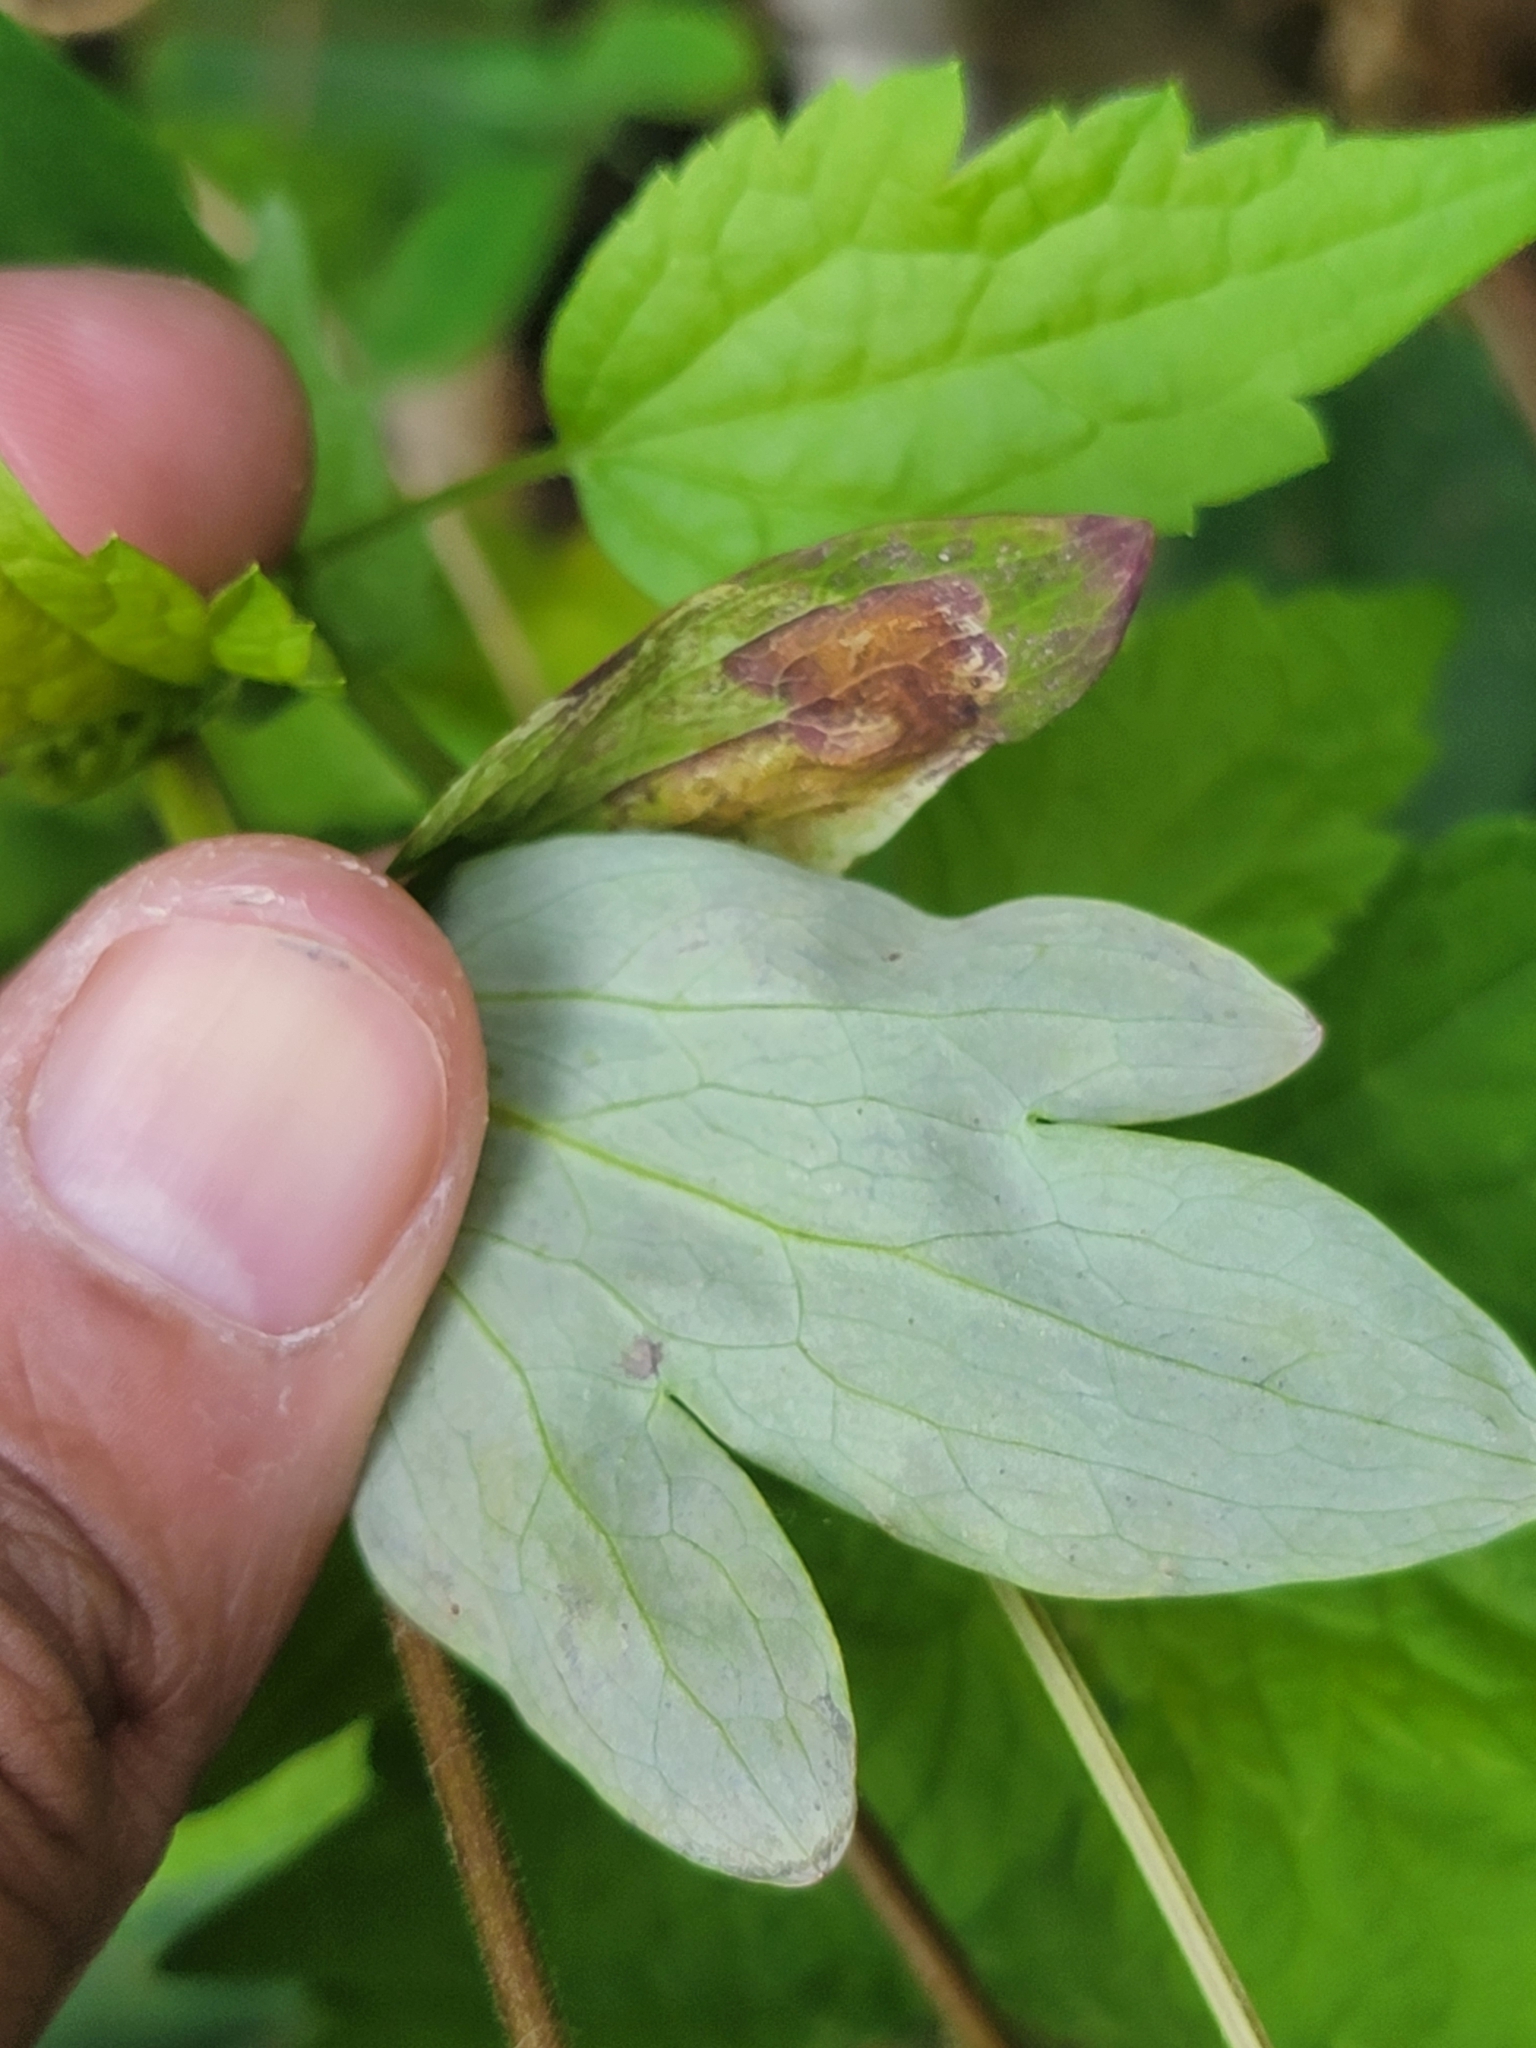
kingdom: Animalia
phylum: Arthropoda
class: Insecta
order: Diptera
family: Agromyzidae
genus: Phytomyza
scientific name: Phytomyza aquilegiana
